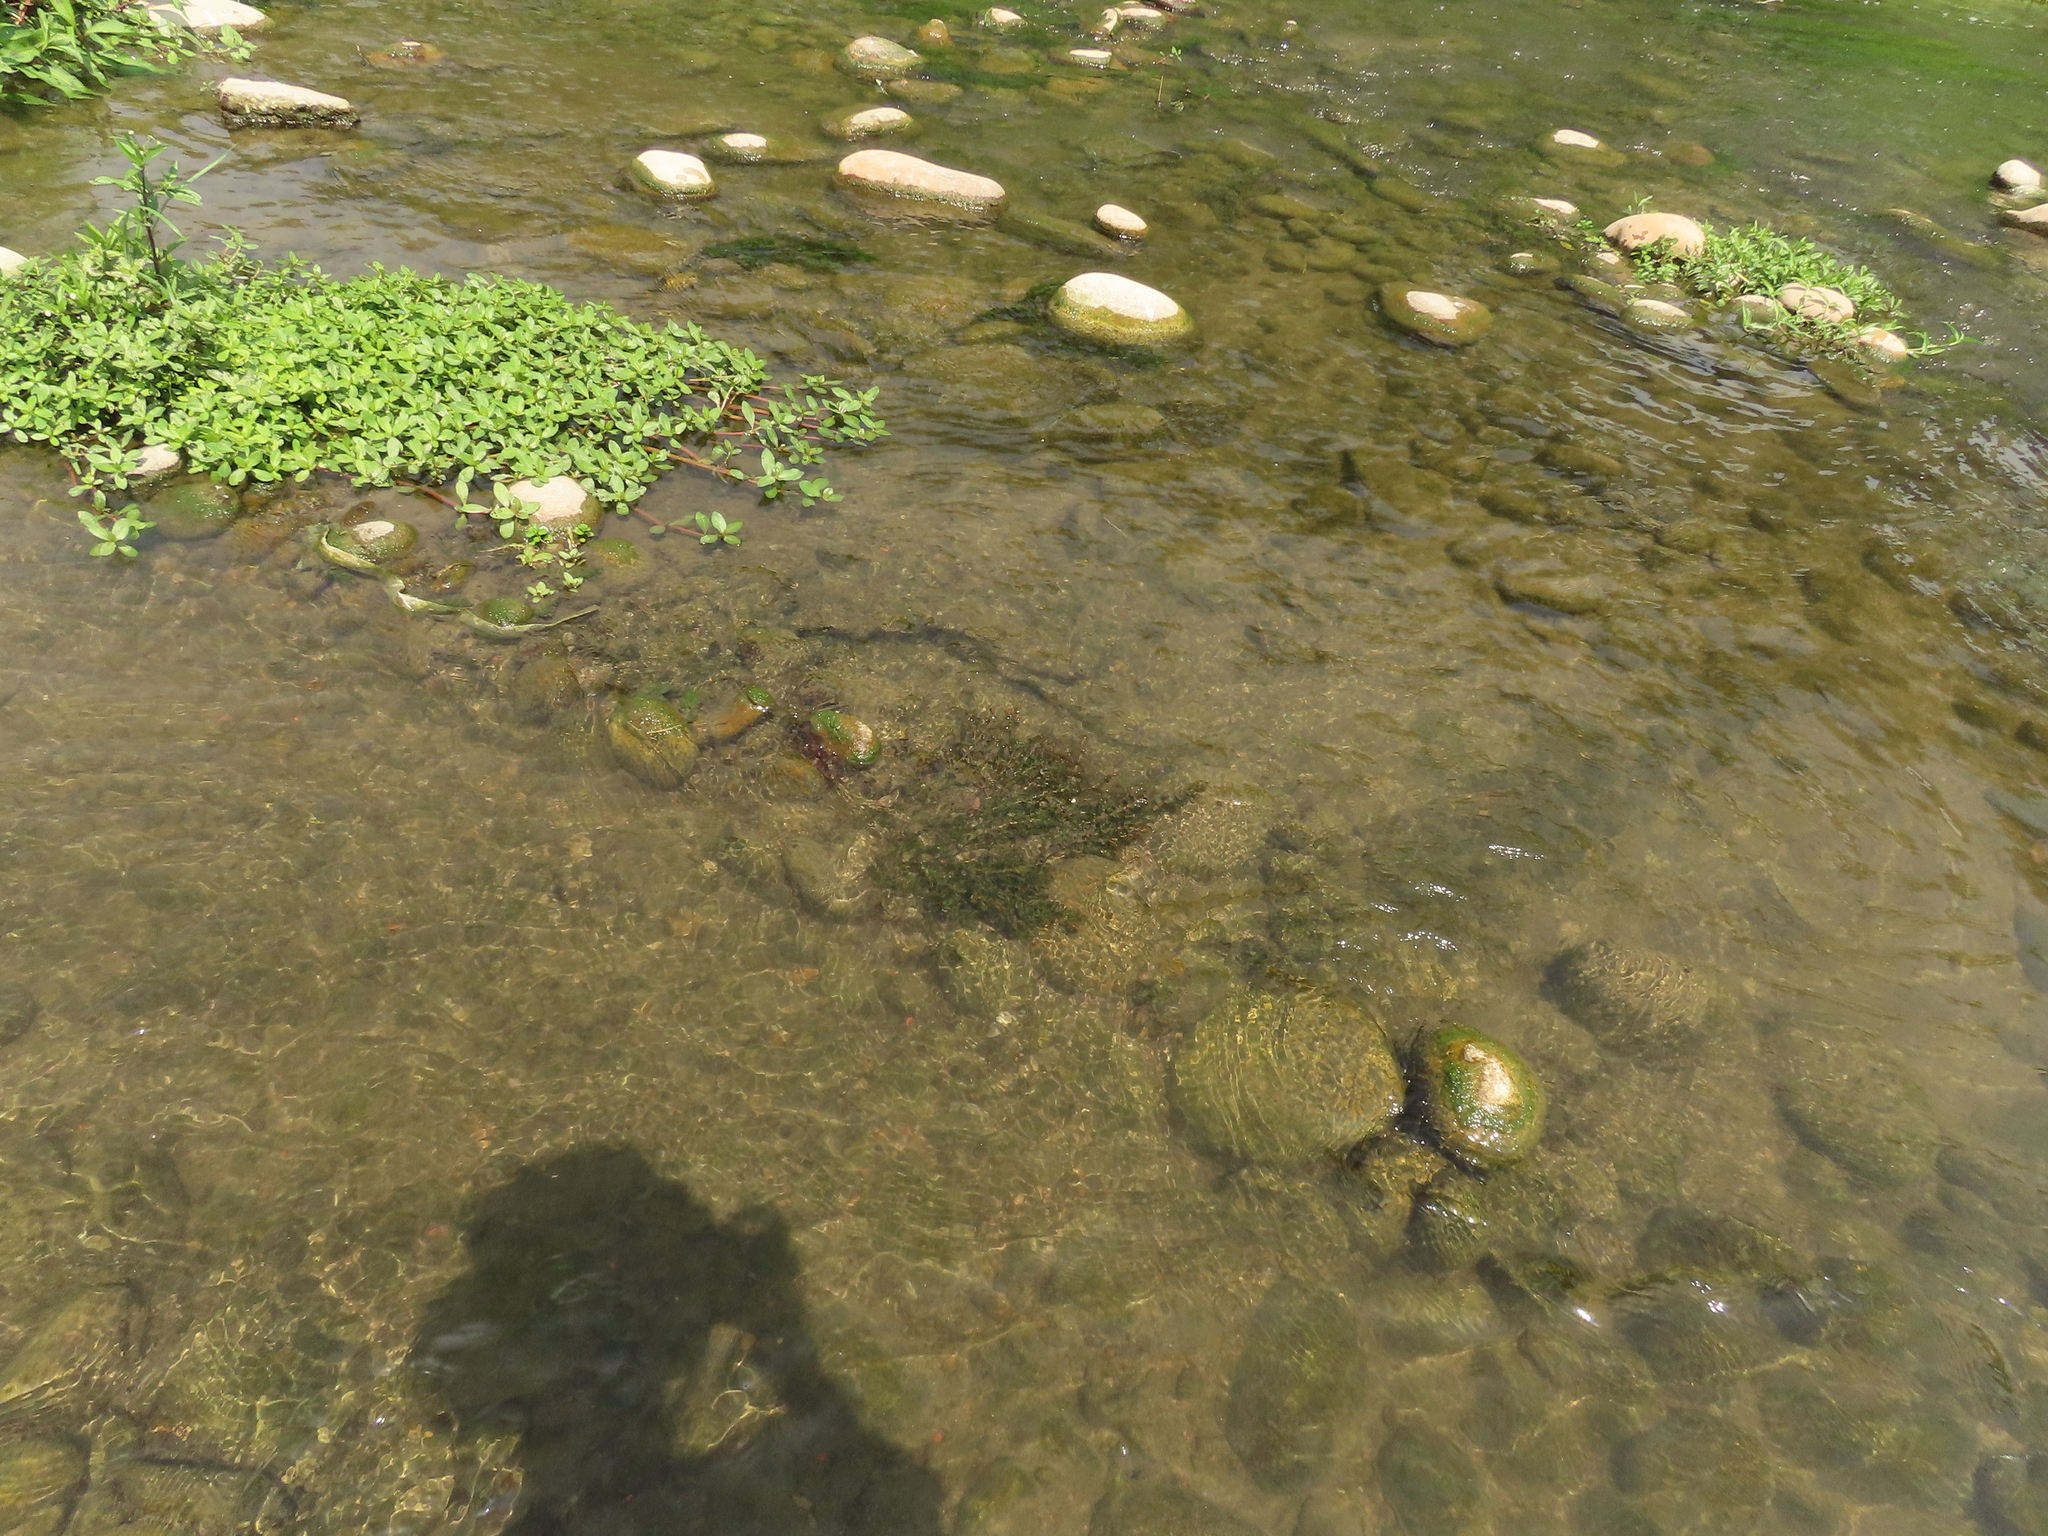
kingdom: Plantae
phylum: Tracheophyta
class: Liliopsida
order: Alismatales
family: Potamogetonaceae
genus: Potamogeton
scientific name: Potamogeton crispus
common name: Curled pondweed
